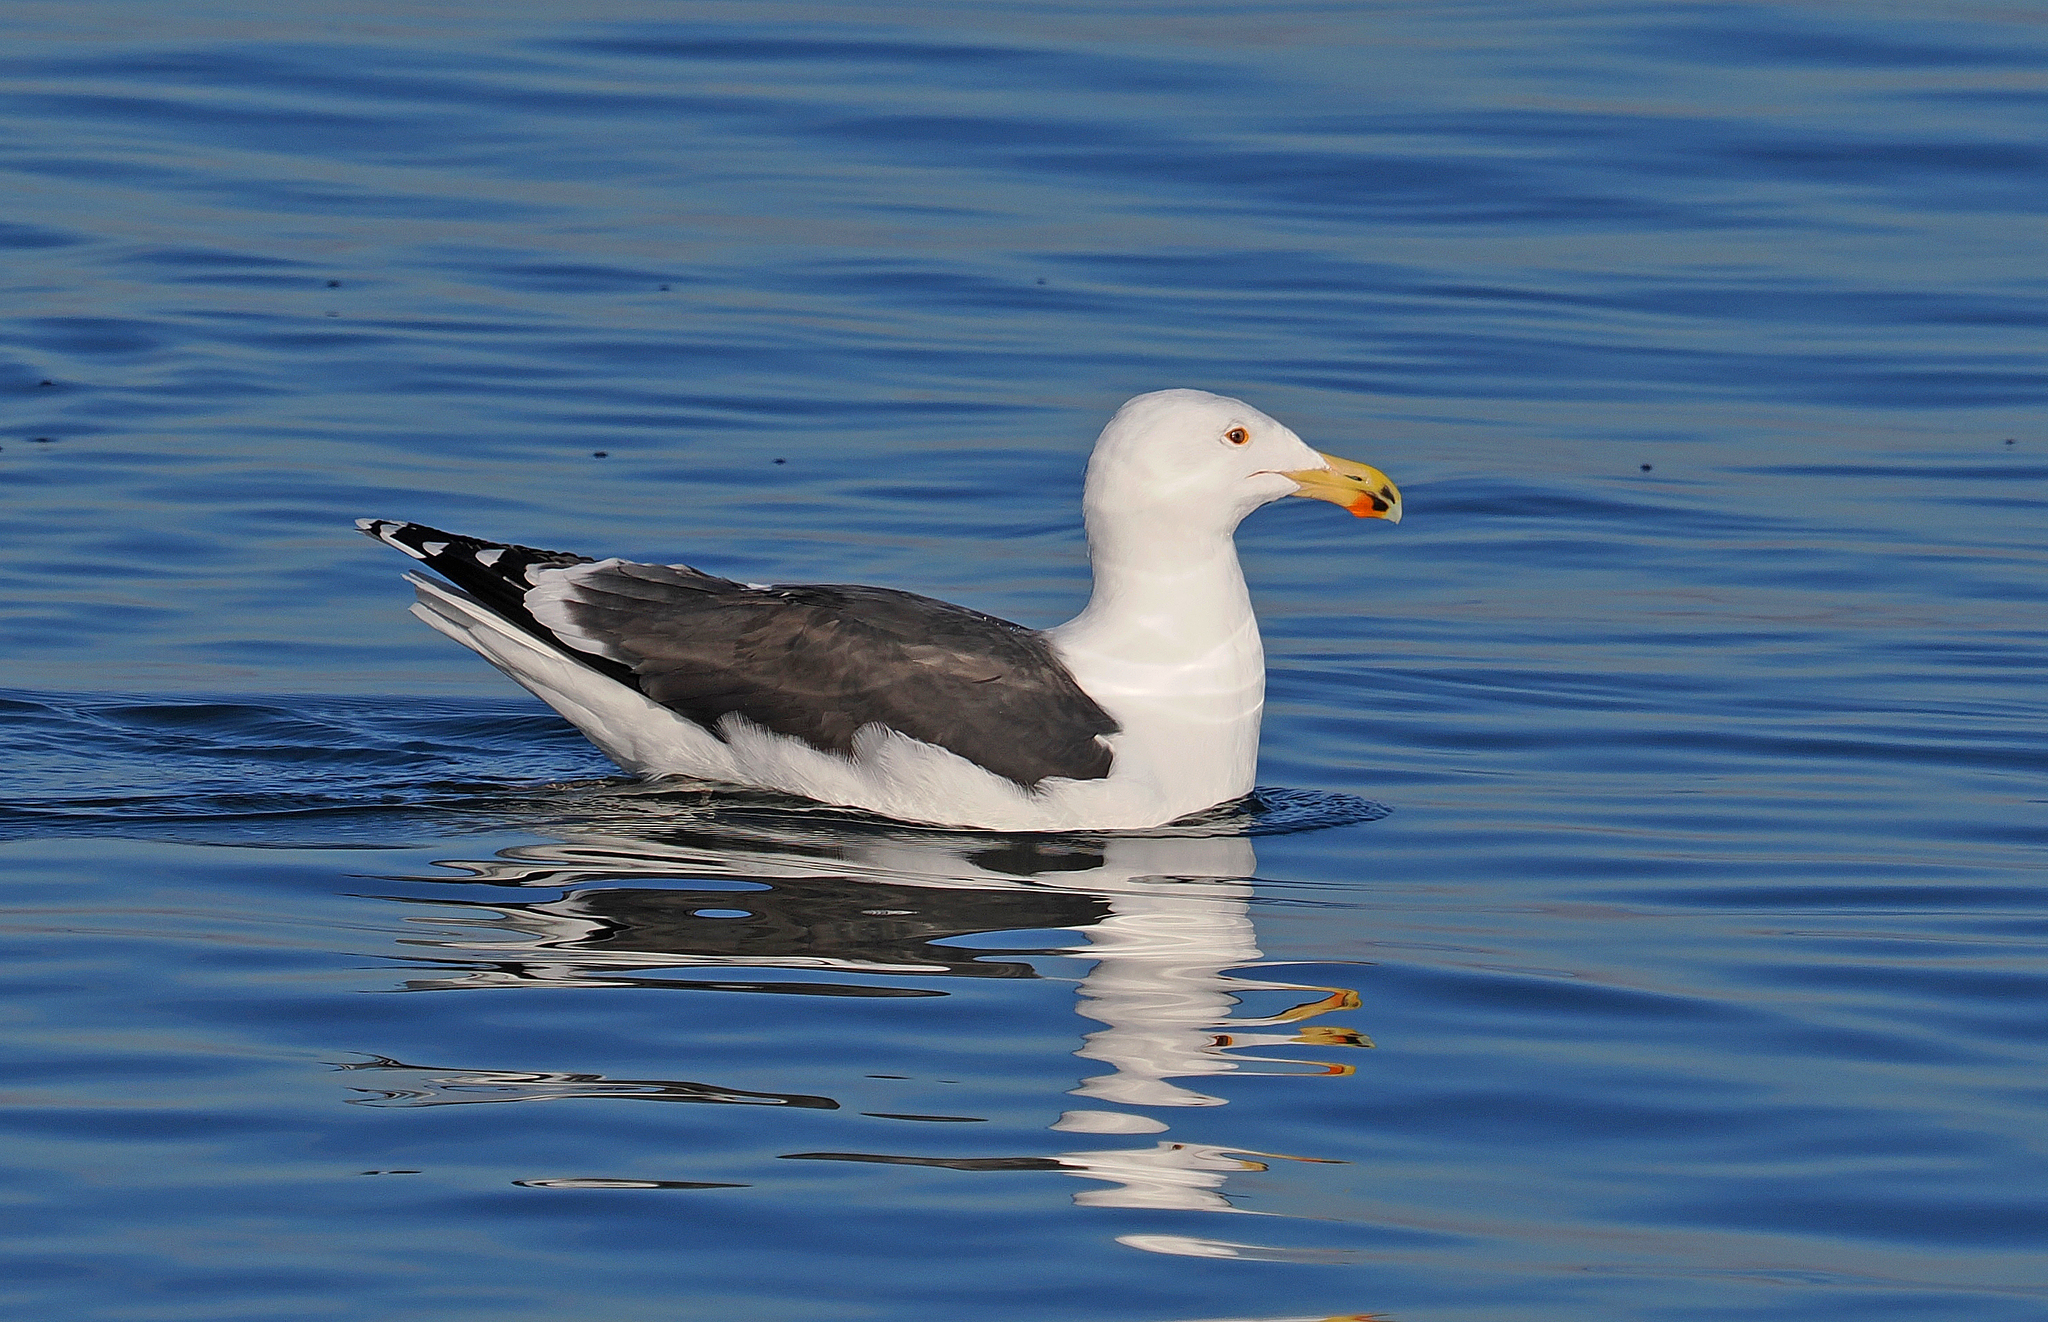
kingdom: Animalia
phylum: Chordata
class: Aves
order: Charadriiformes
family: Laridae
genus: Larus
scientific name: Larus marinus
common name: Great black-backed gull
